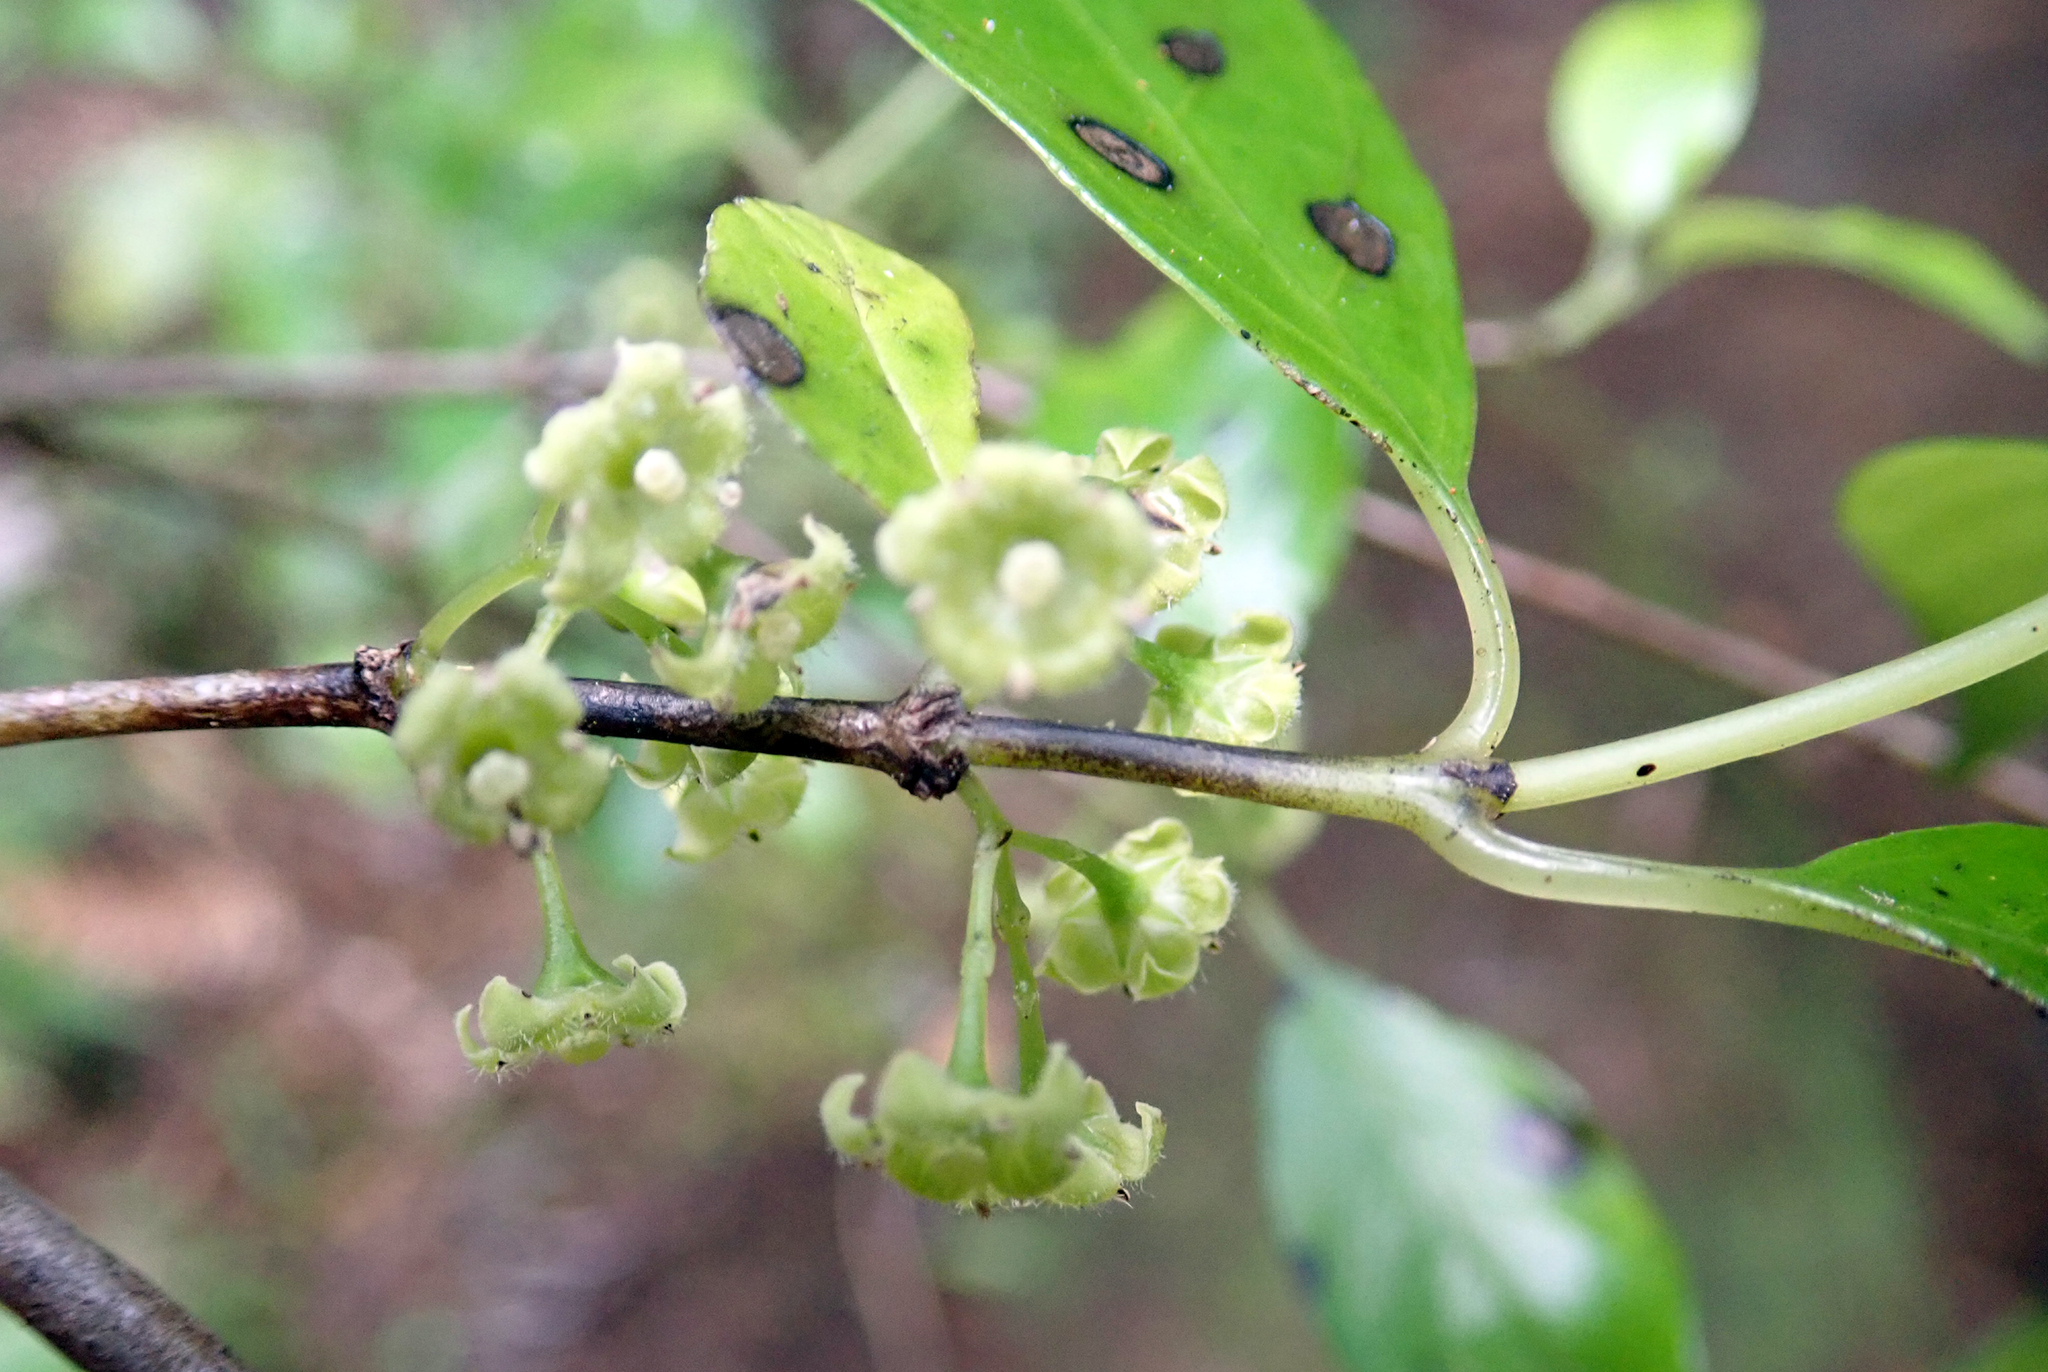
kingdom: Plantae
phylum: Tracheophyta
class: Magnoliopsida
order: Gentianales
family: Loganiaceae
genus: Geniostoma
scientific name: Geniostoma ligustrifolium
